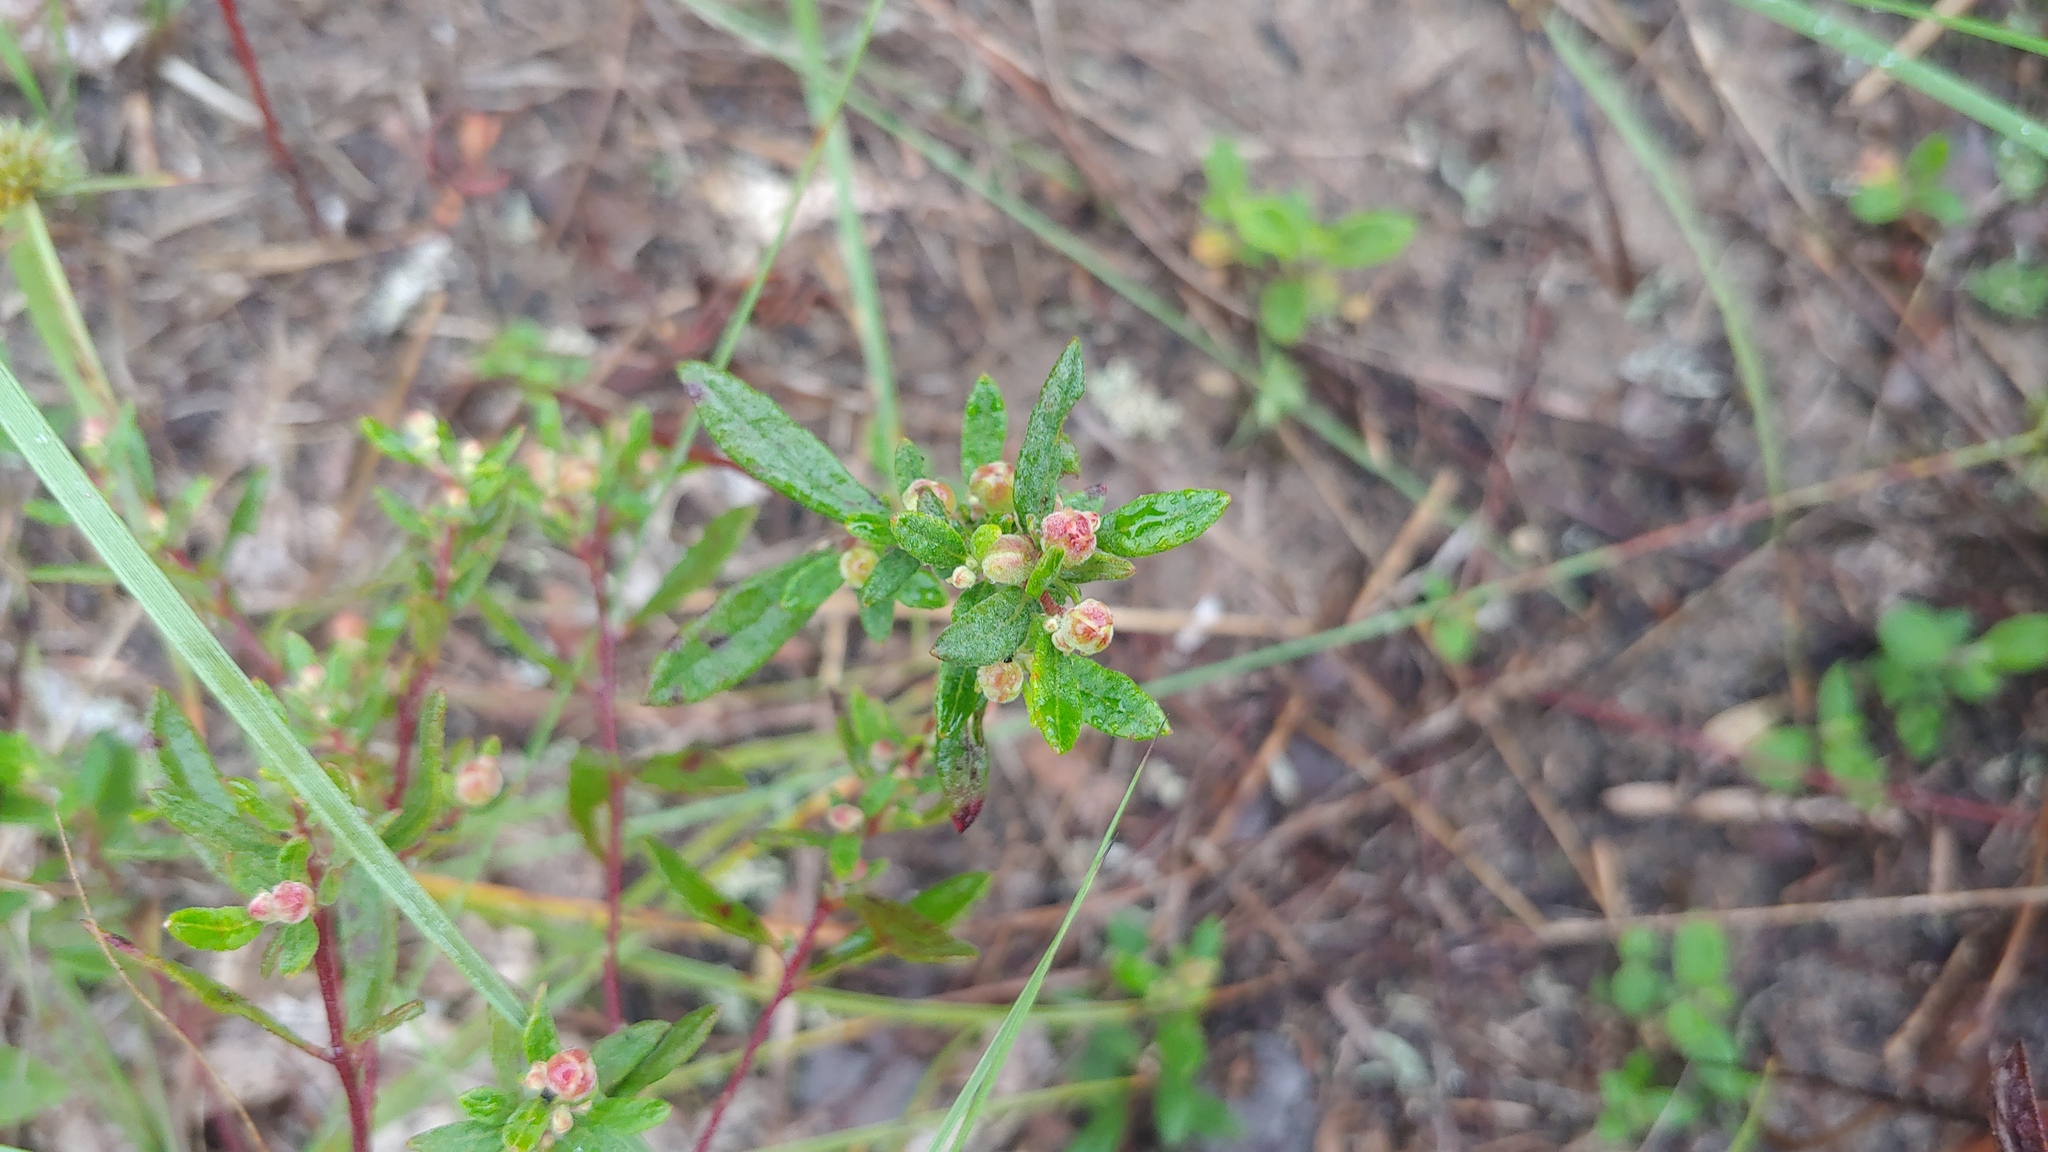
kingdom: Plantae
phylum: Tracheophyta
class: Magnoliopsida
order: Malvales
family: Cistaceae
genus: Crocanthemum
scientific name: Crocanthemum canadense
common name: Canada frostweed
